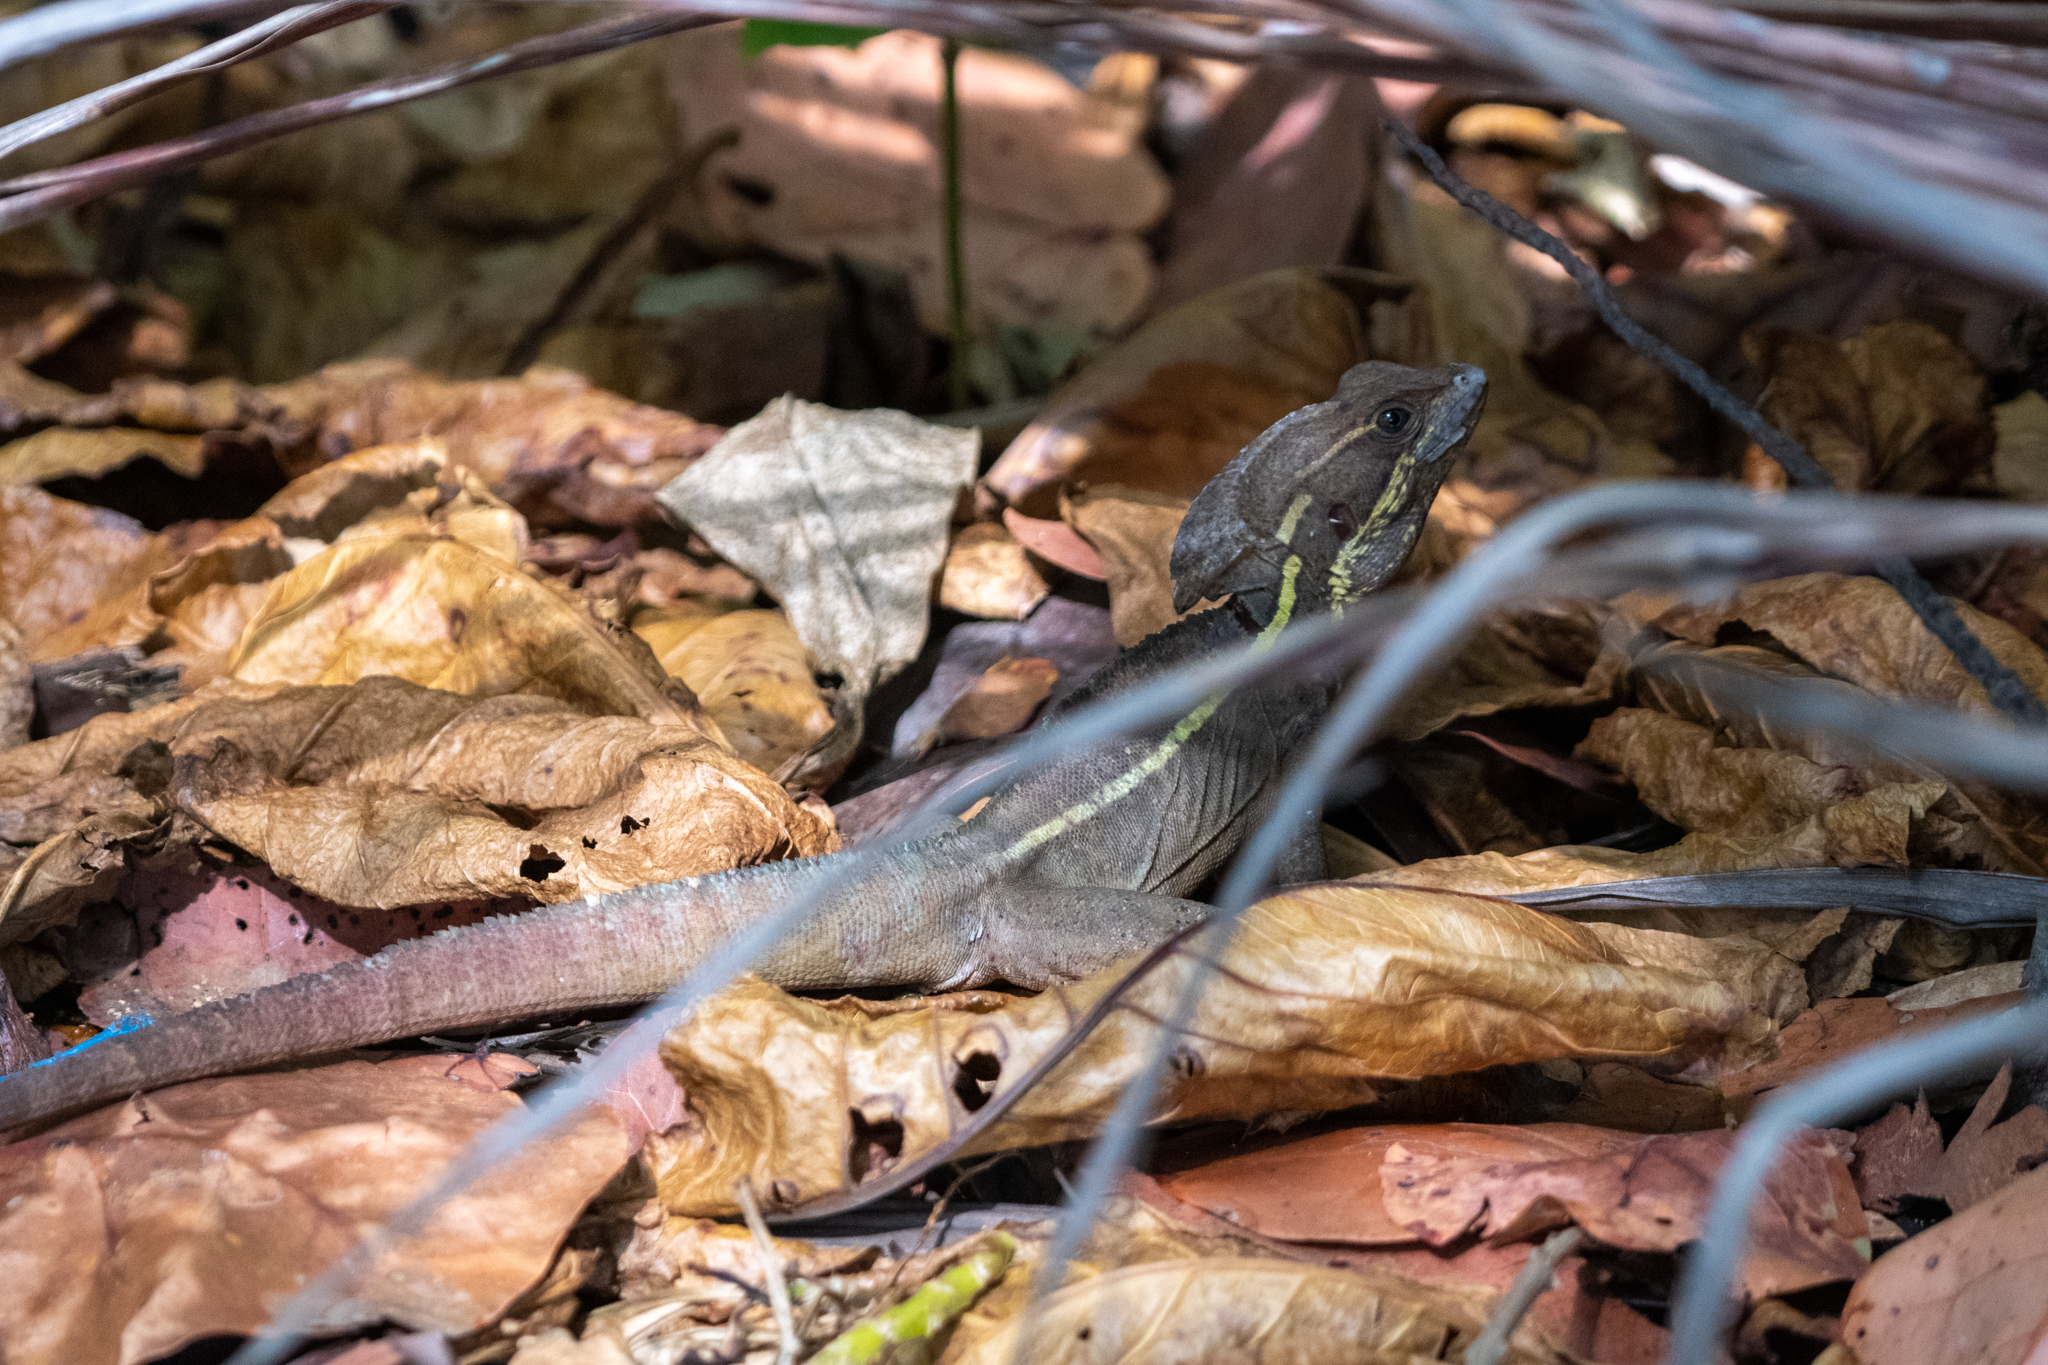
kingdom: Animalia
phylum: Chordata
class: Squamata
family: Corytophanidae
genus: Basiliscus
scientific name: Basiliscus vittatus
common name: Brown basilisk
